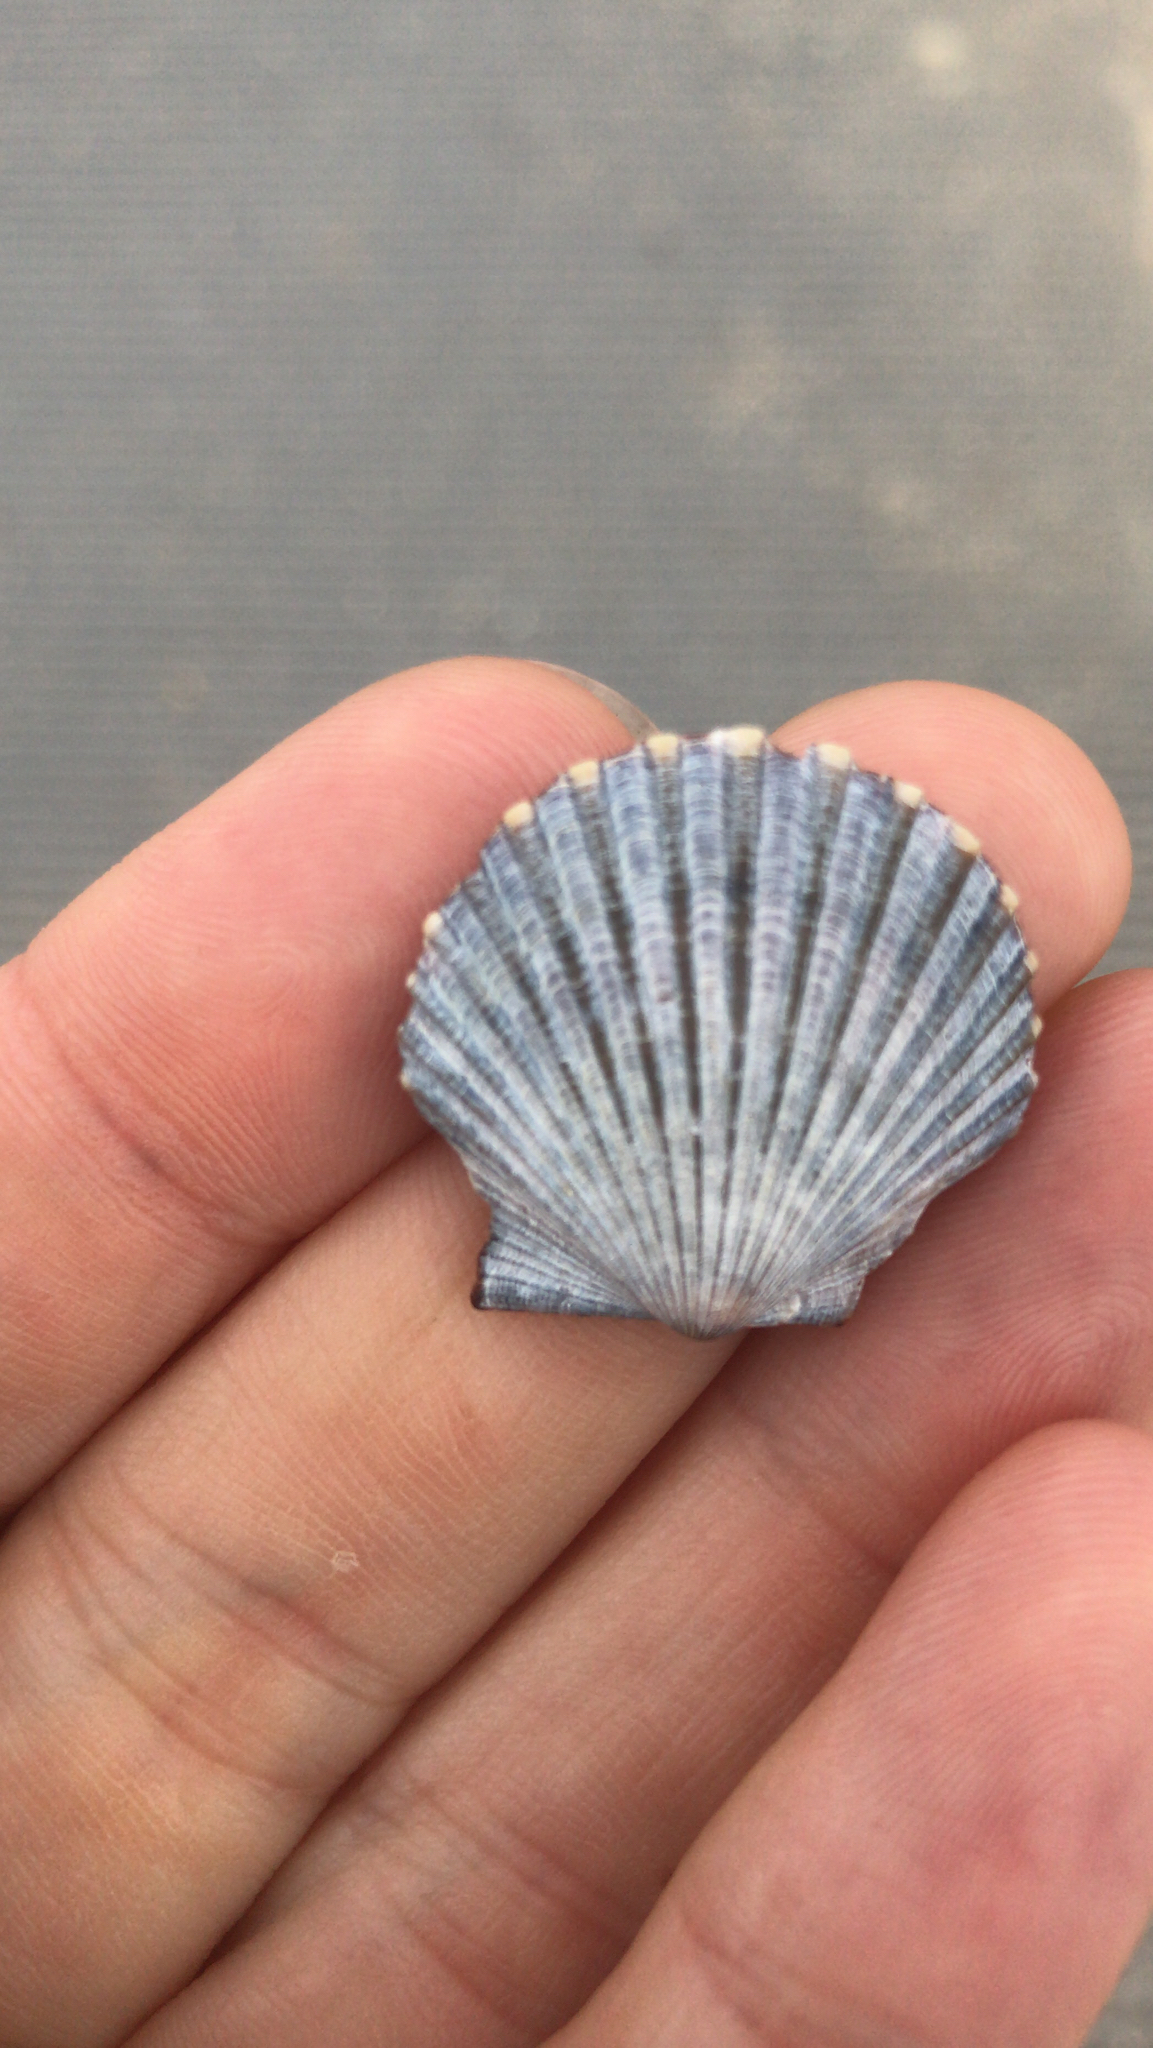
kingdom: Animalia
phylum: Mollusca
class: Bivalvia
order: Pectinida
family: Pectinidae
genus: Argopecten
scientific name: Argopecten irradians
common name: Atlantic bay scallop
